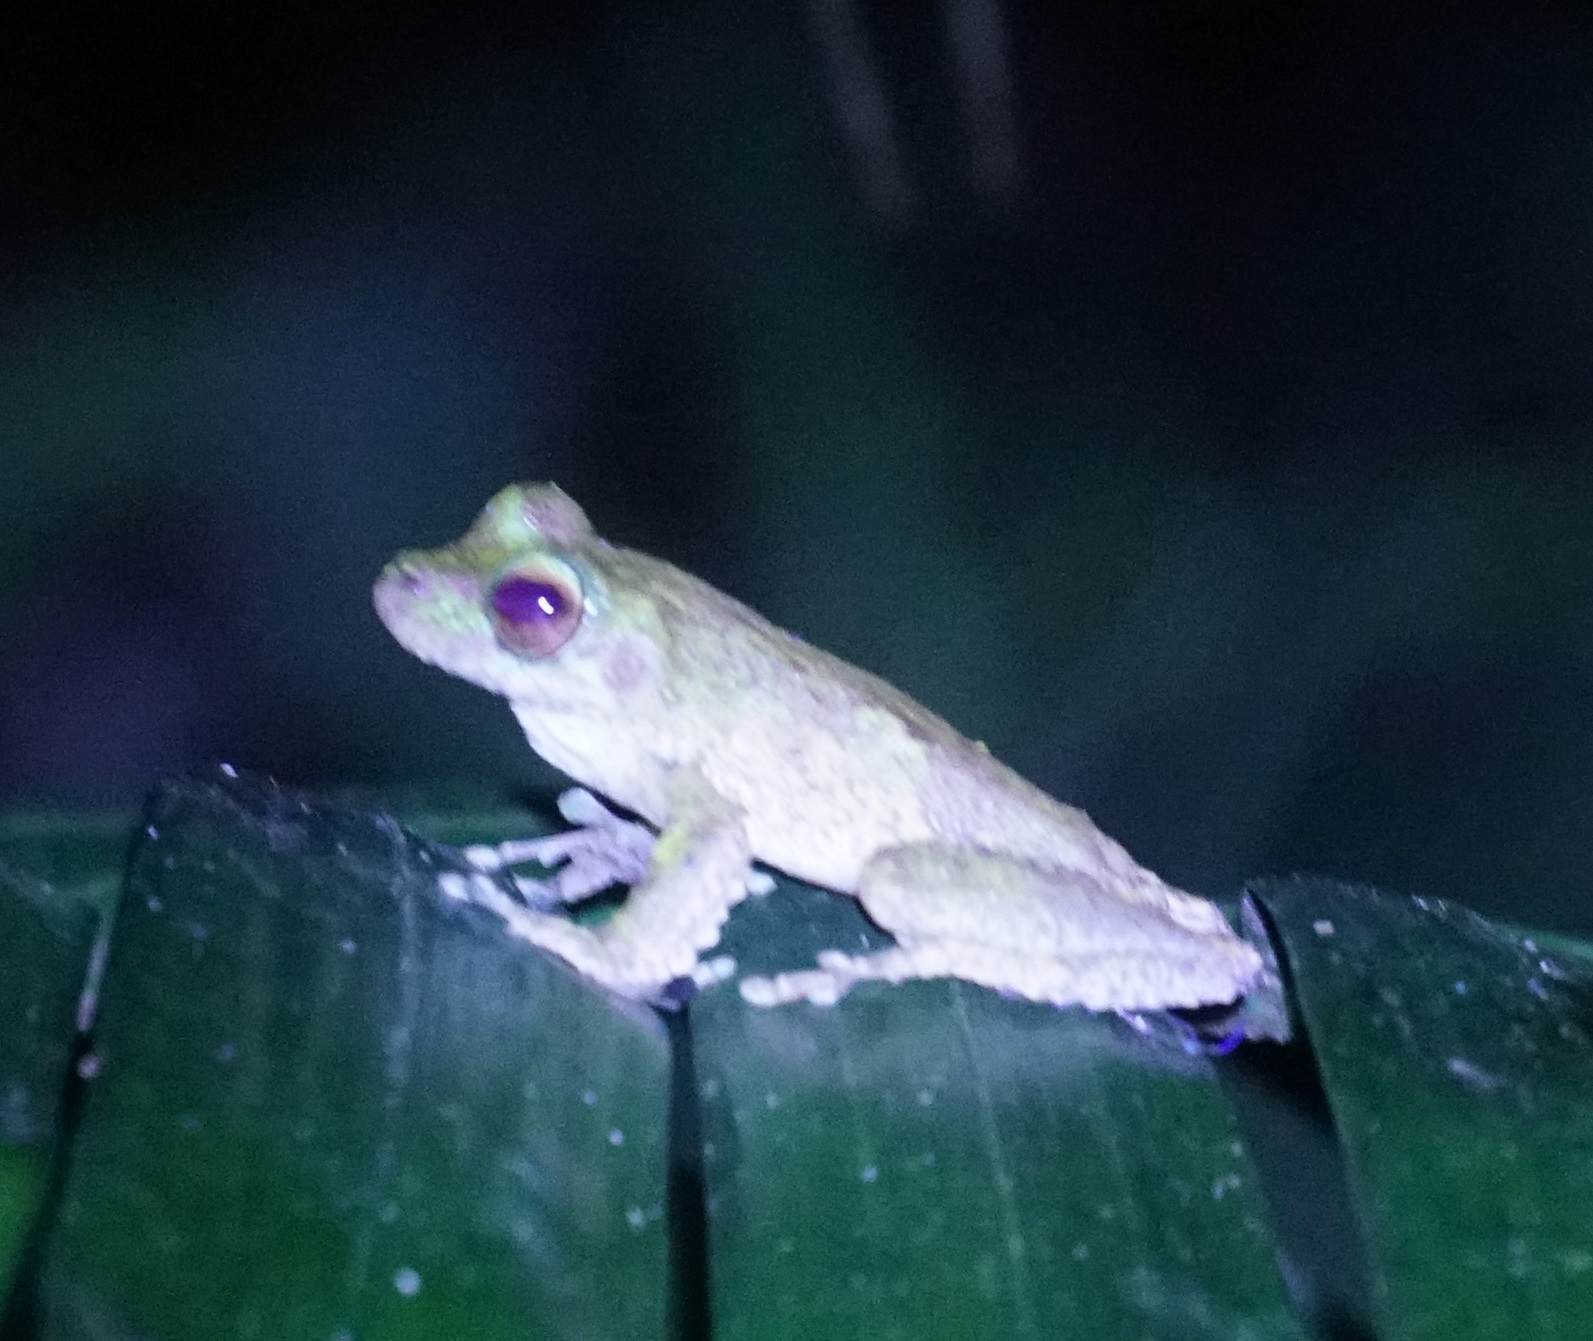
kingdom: Animalia
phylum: Chordata
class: Amphibia
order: Anura
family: Hylidae
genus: Ranoidea
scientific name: Ranoidea
